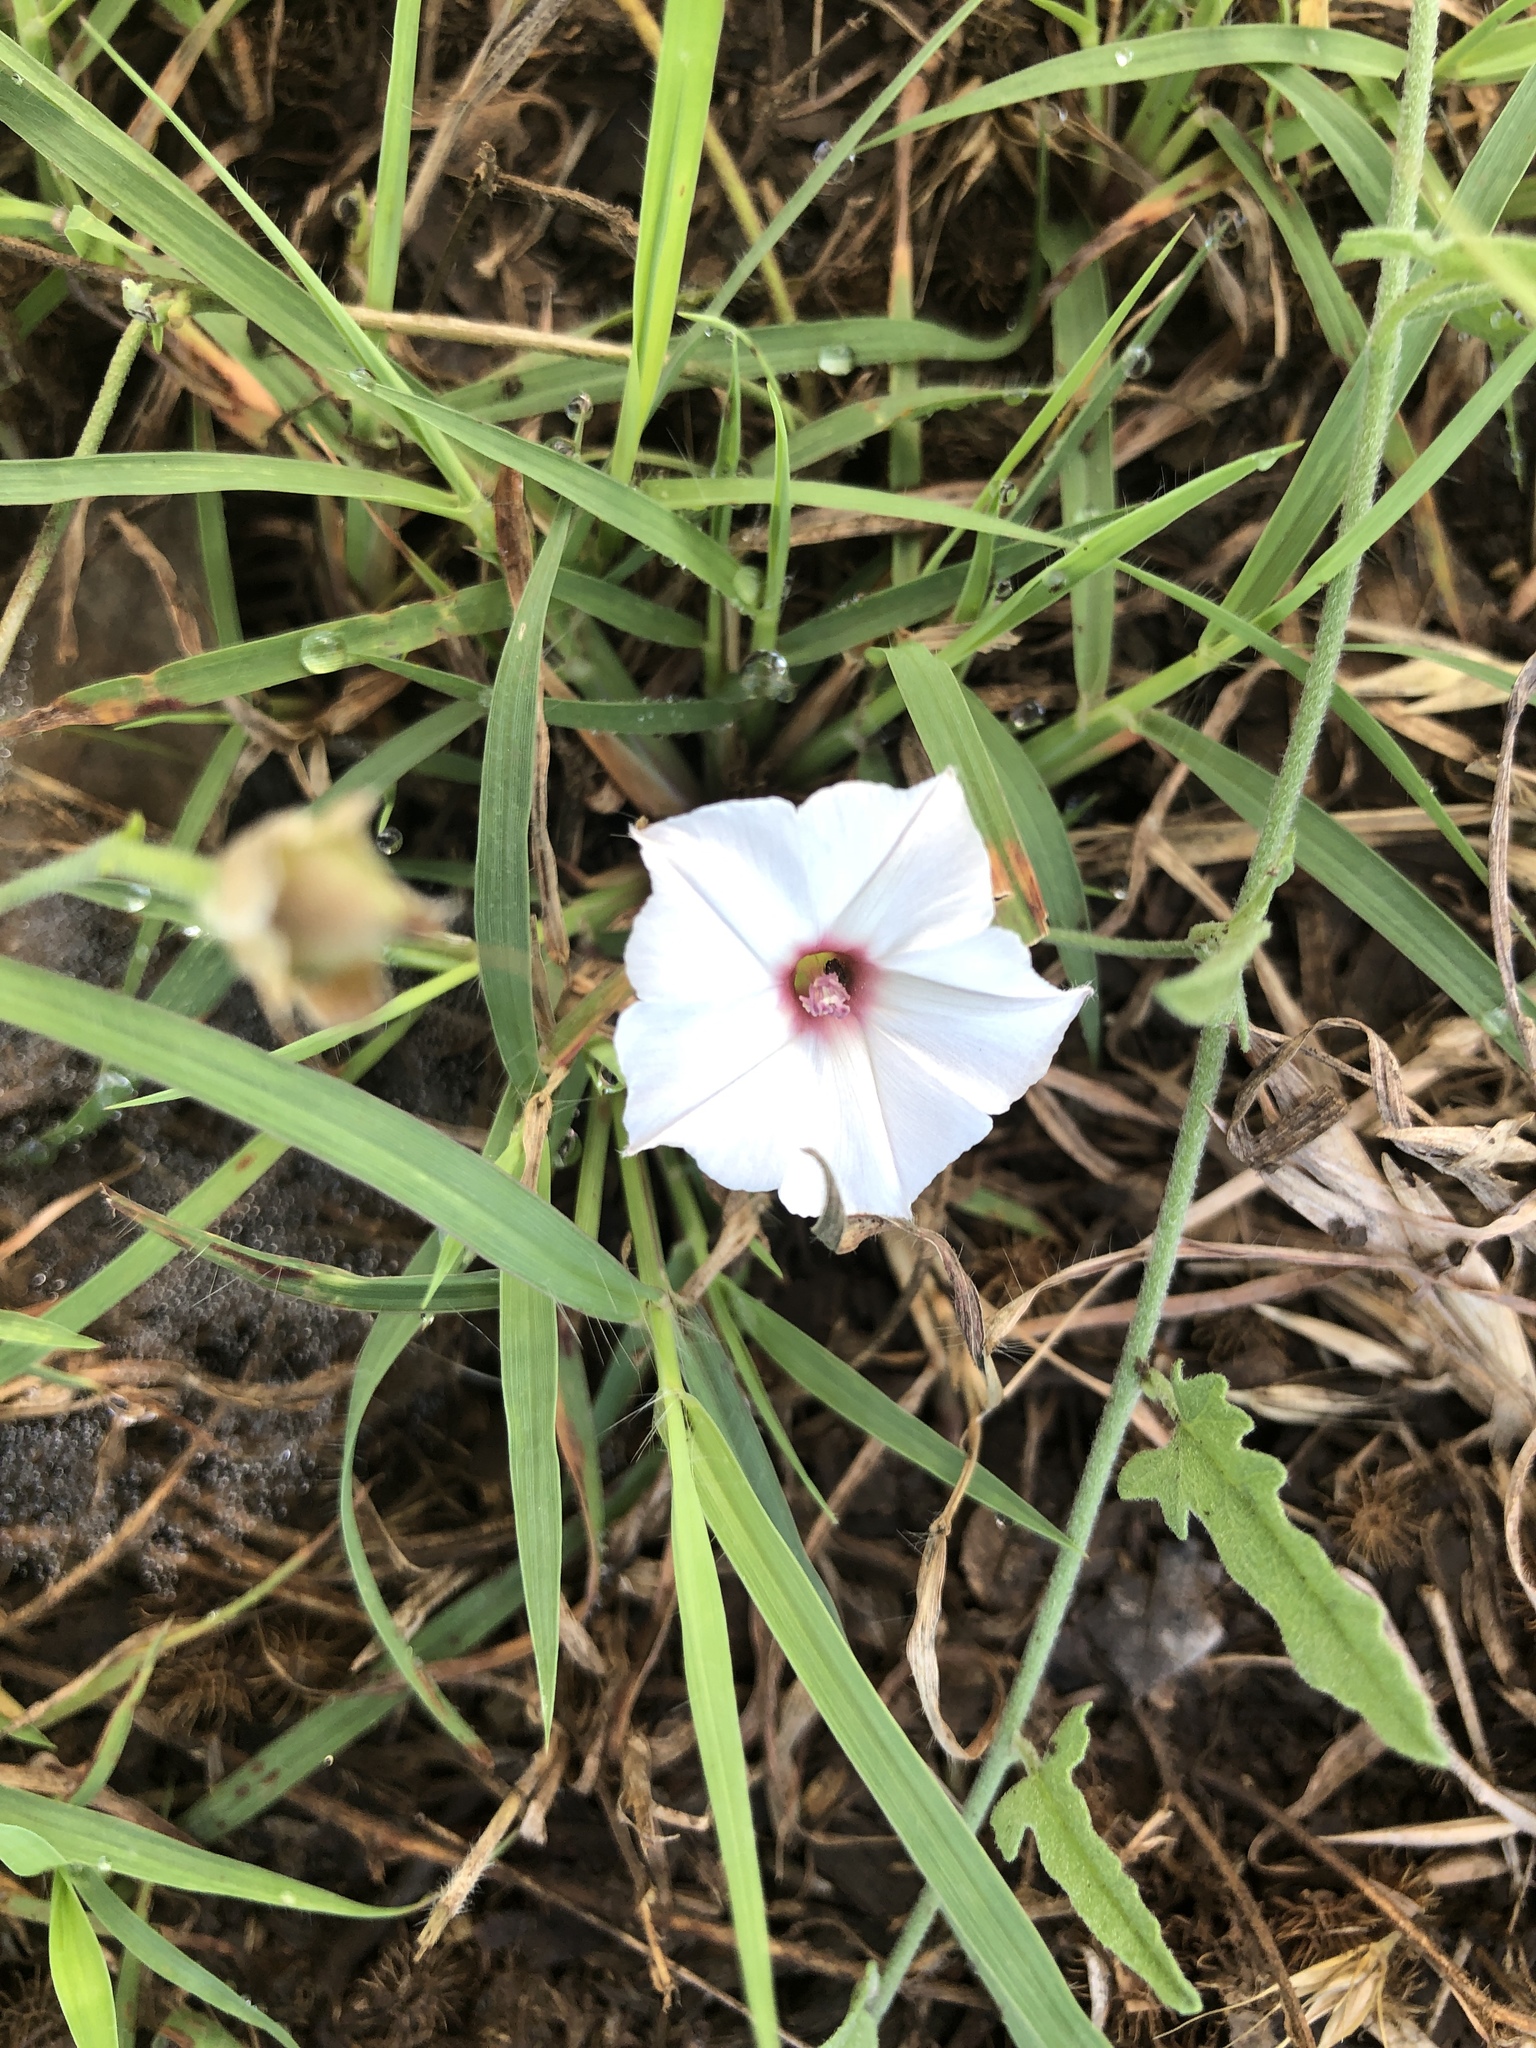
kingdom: Plantae
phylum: Tracheophyta
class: Magnoliopsida
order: Solanales
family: Convolvulaceae
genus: Convolvulus
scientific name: Convolvulus equitans
